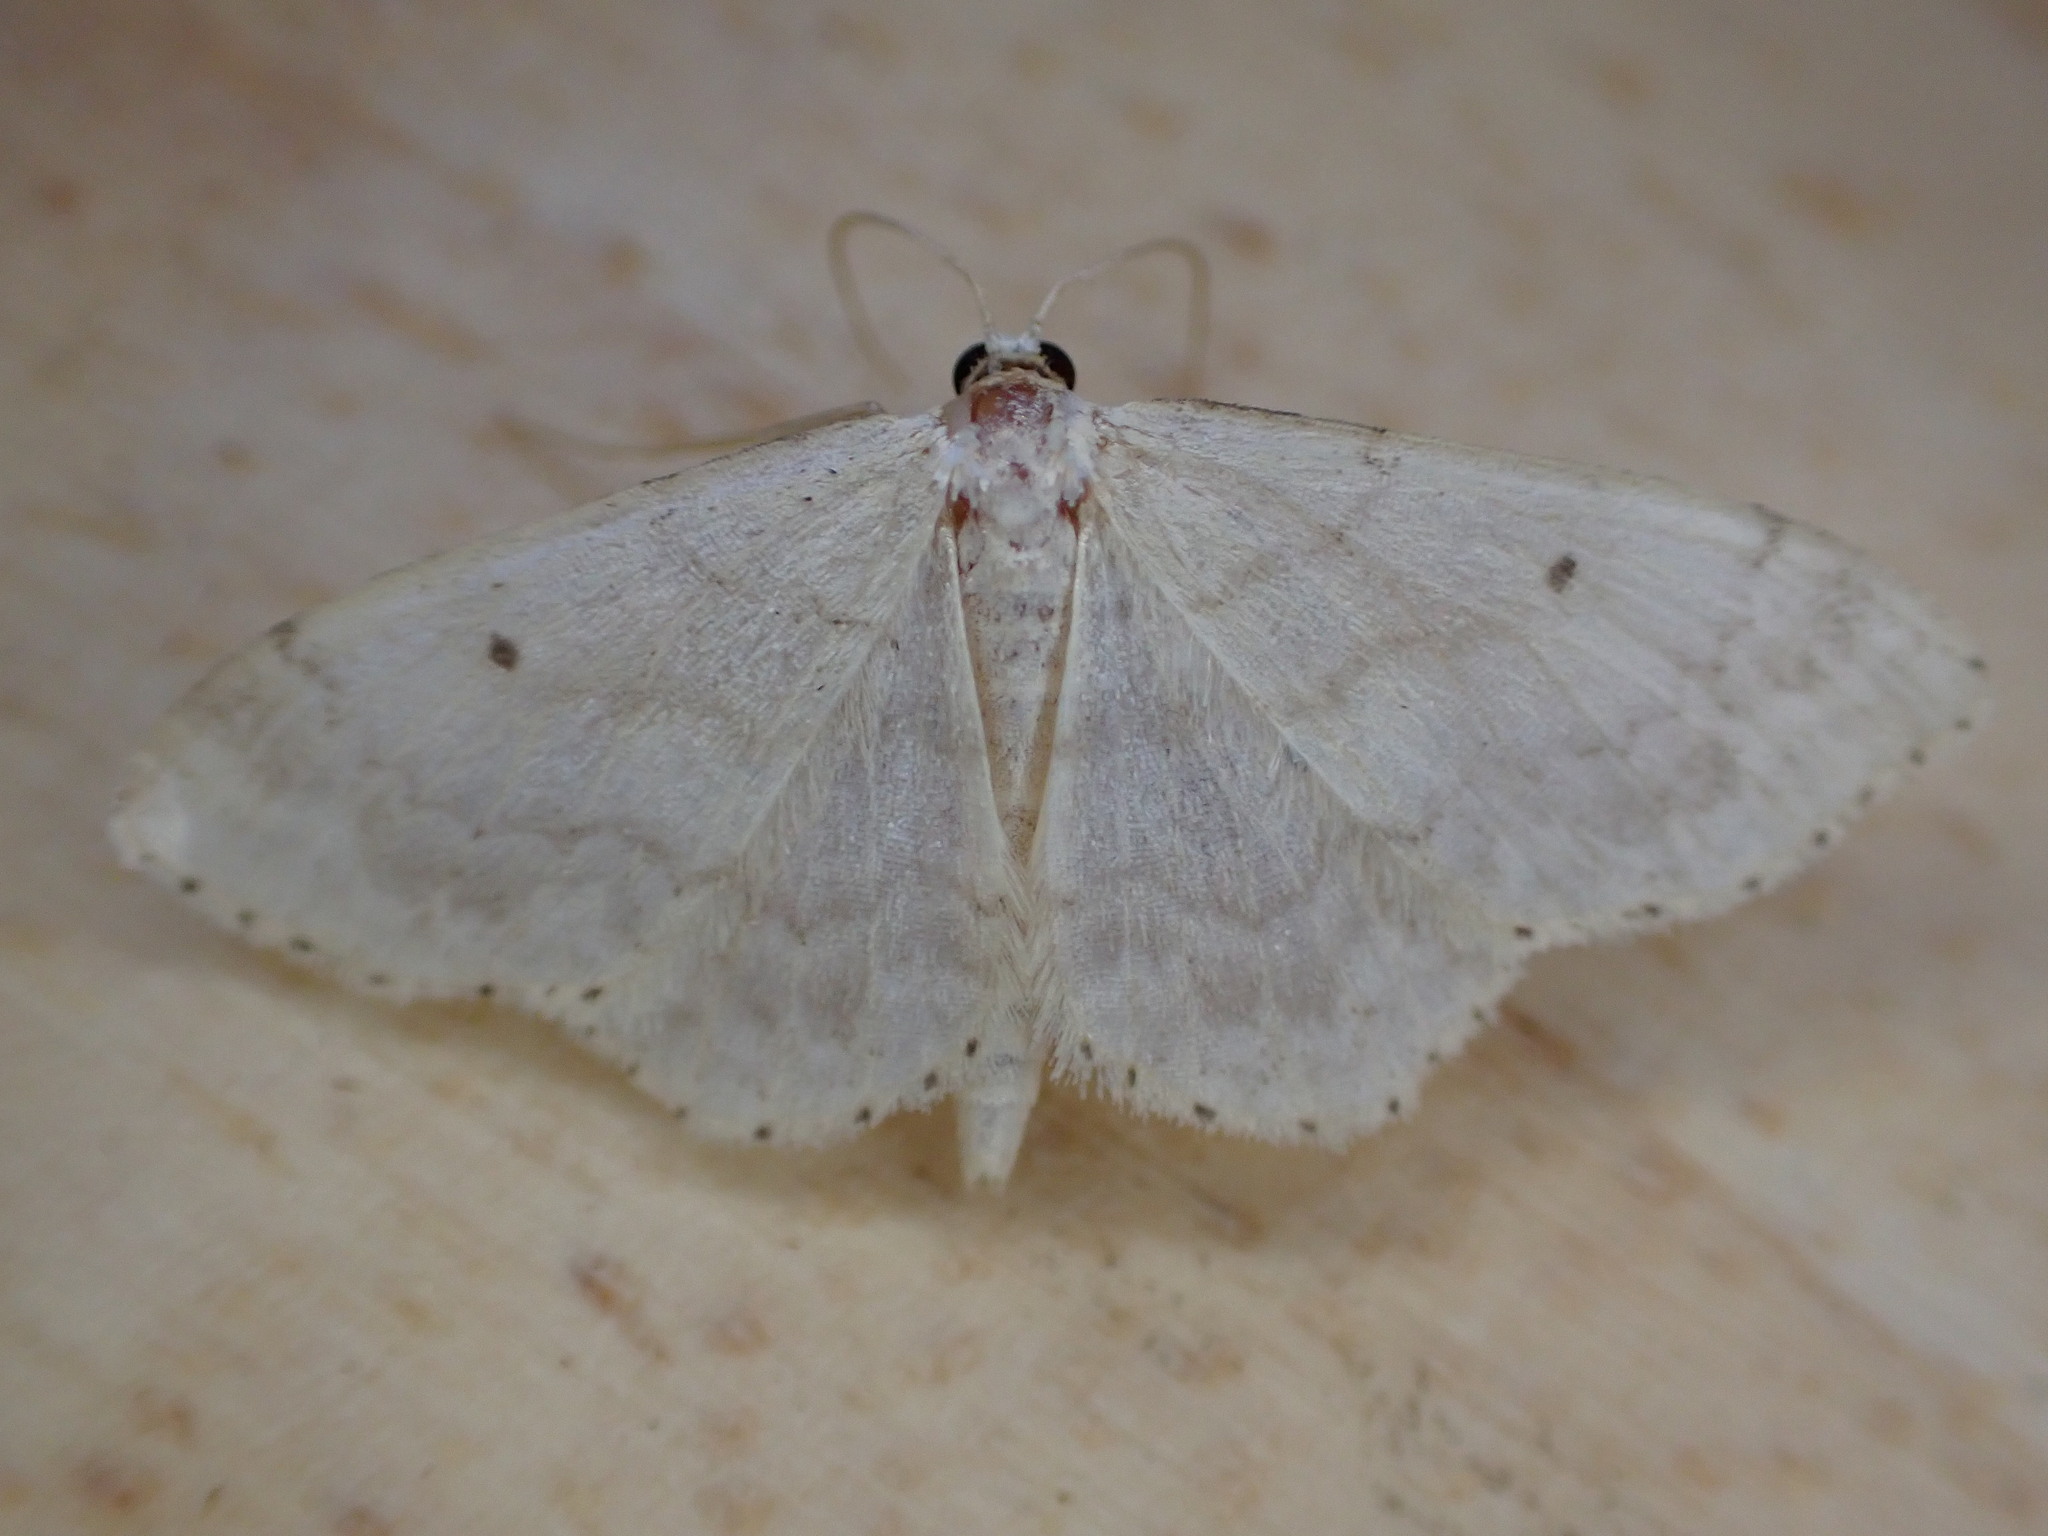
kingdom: Animalia
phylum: Arthropoda
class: Insecta
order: Lepidoptera
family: Geometridae
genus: Idaea
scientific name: Idaea biselata
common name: Small fan-footed wave
